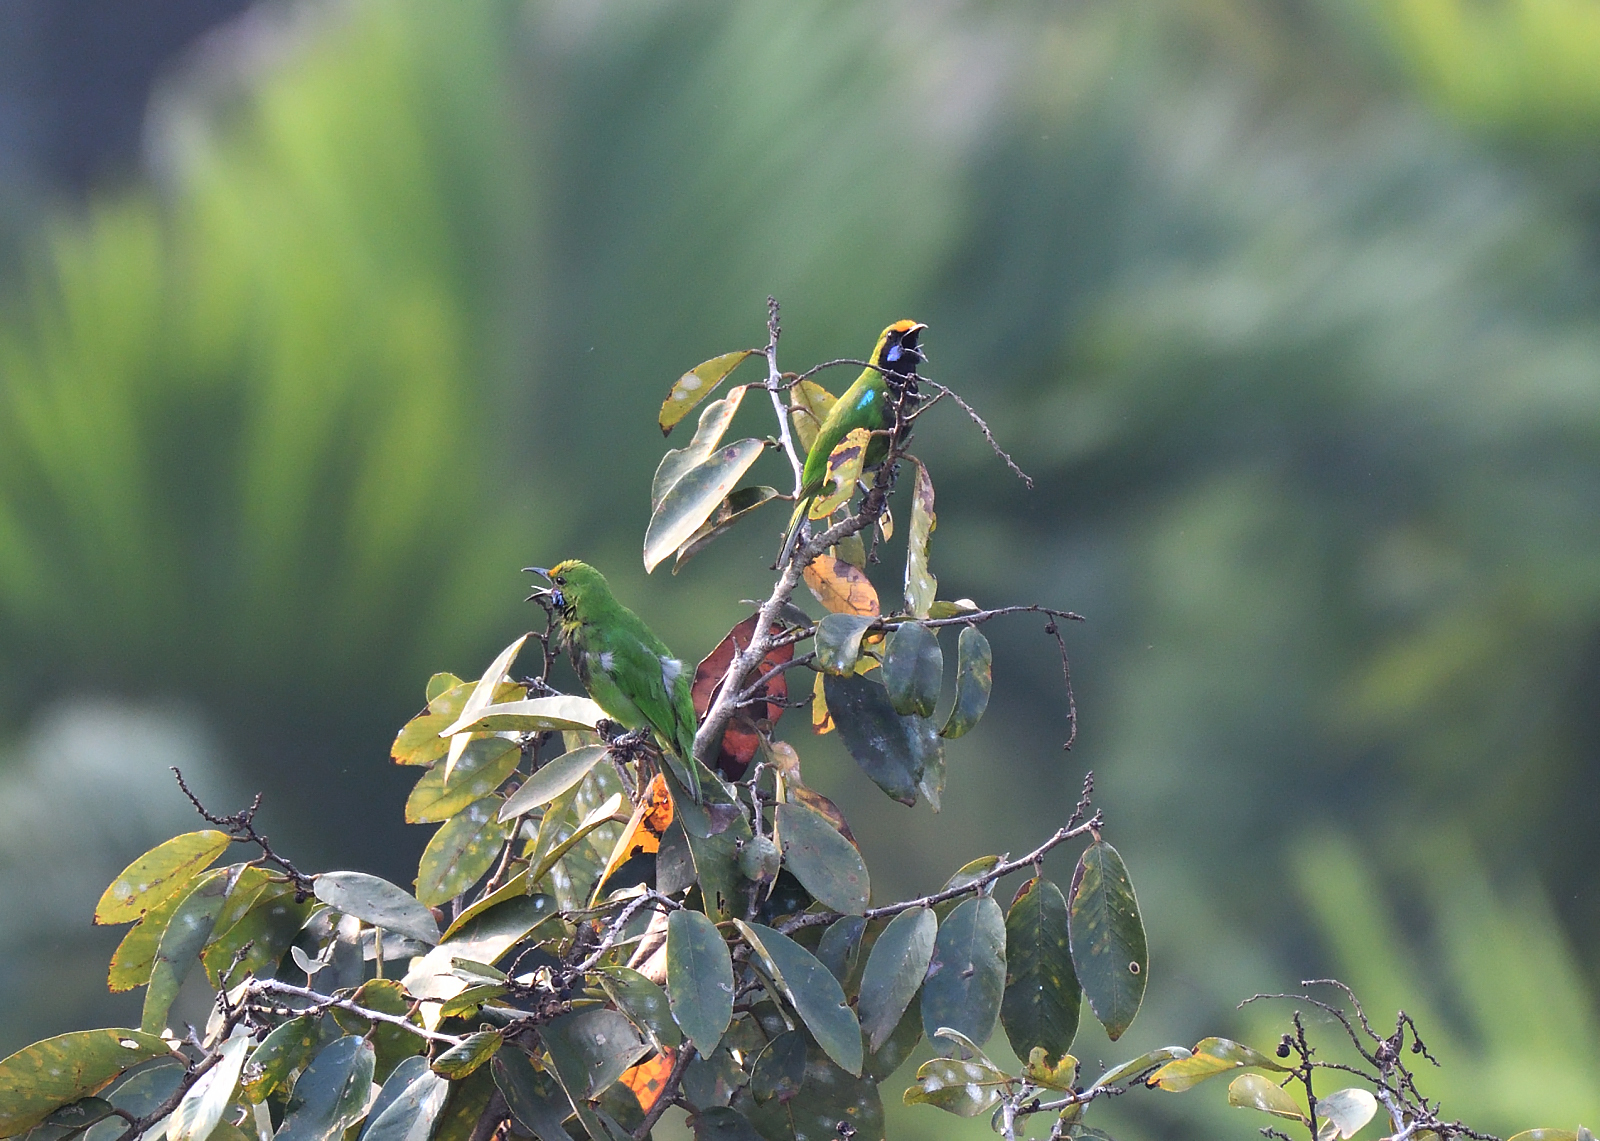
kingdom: Animalia
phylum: Chordata
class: Aves
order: Passeriformes
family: Chloropseidae
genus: Chloropsis
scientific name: Chloropsis aurifrons
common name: Golden-fronted leafbird
